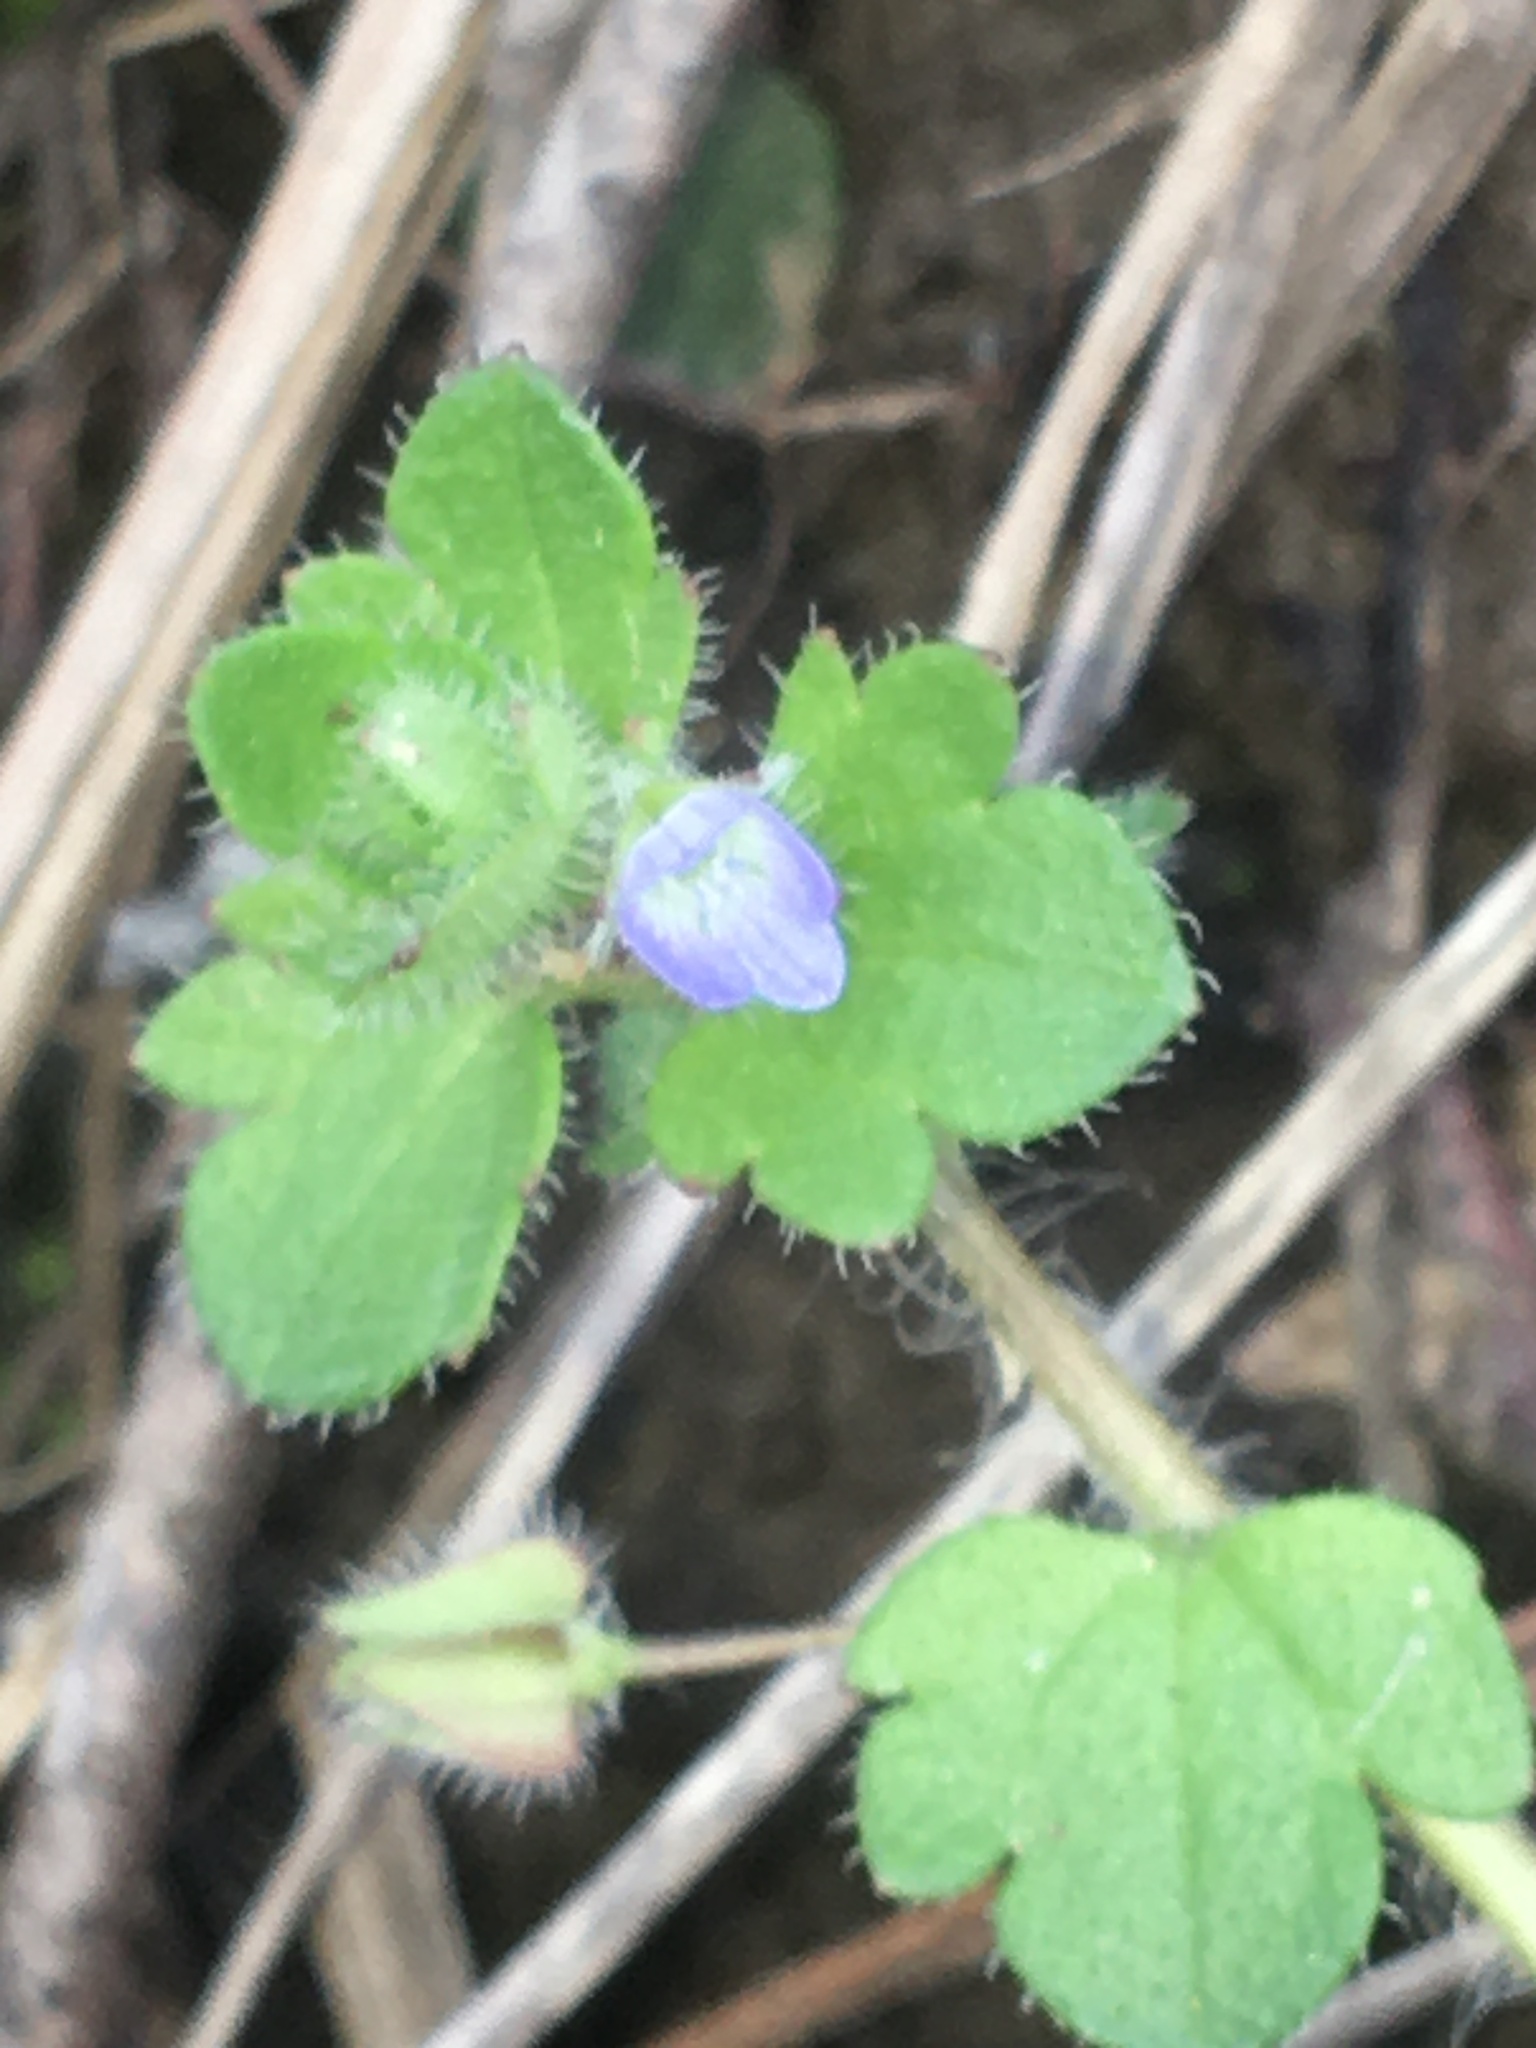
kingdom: Plantae
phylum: Tracheophyta
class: Magnoliopsida
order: Lamiales
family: Plantaginaceae
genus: Veronica
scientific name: Veronica hederifolia
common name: Ivy-leaved speedwell
